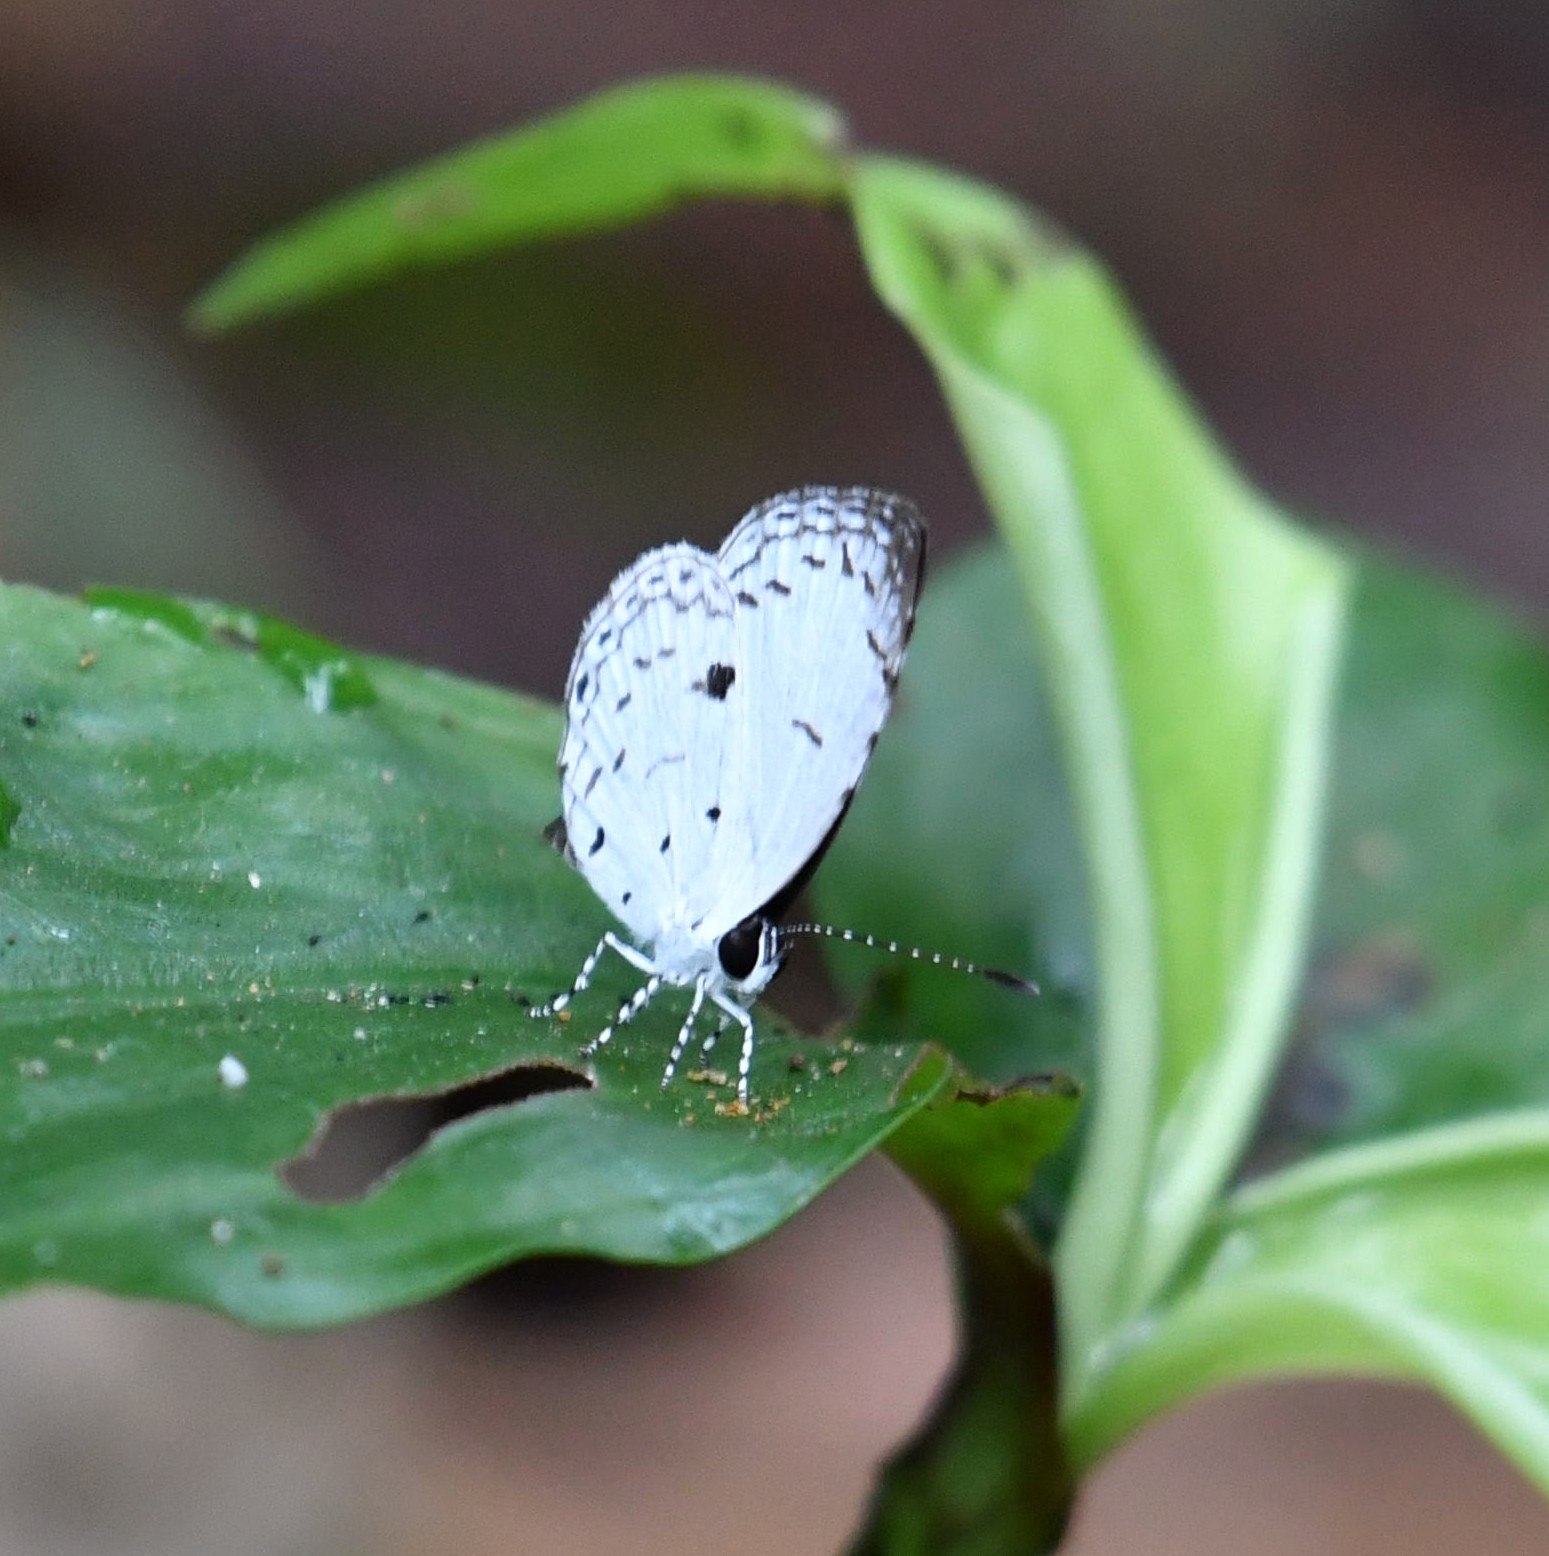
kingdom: Animalia
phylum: Arthropoda
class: Insecta
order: Lepidoptera
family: Lycaenidae
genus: Neopithecops
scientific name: Neopithecops zalmora
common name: Quaker
